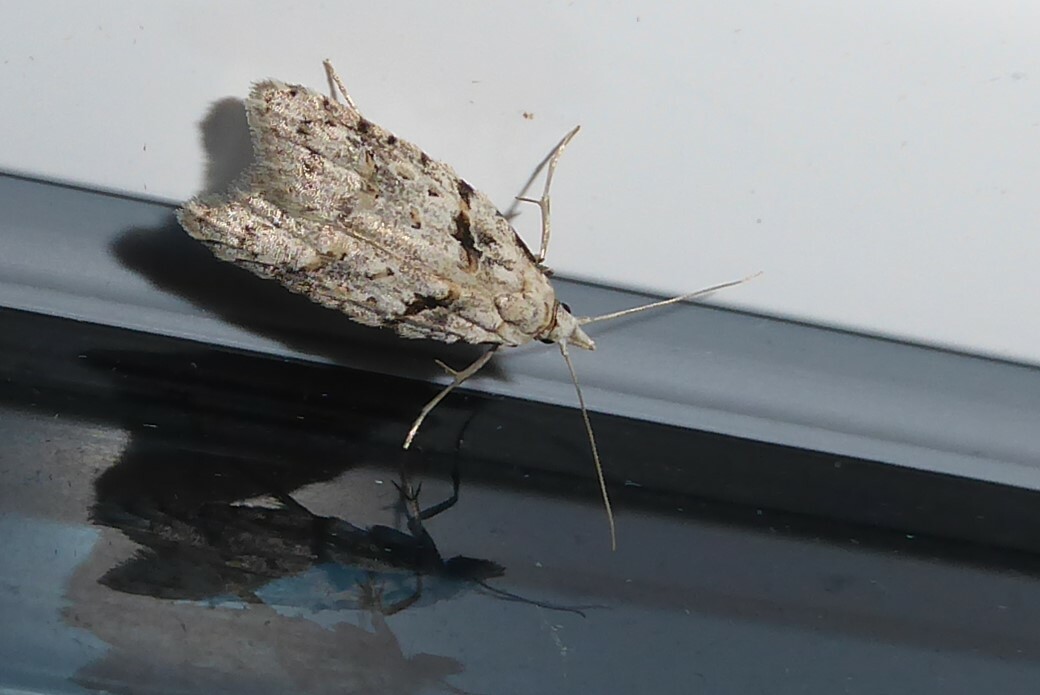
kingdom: Animalia
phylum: Arthropoda
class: Insecta
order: Lepidoptera
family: Carposinidae
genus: Carposina
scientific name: Carposina
